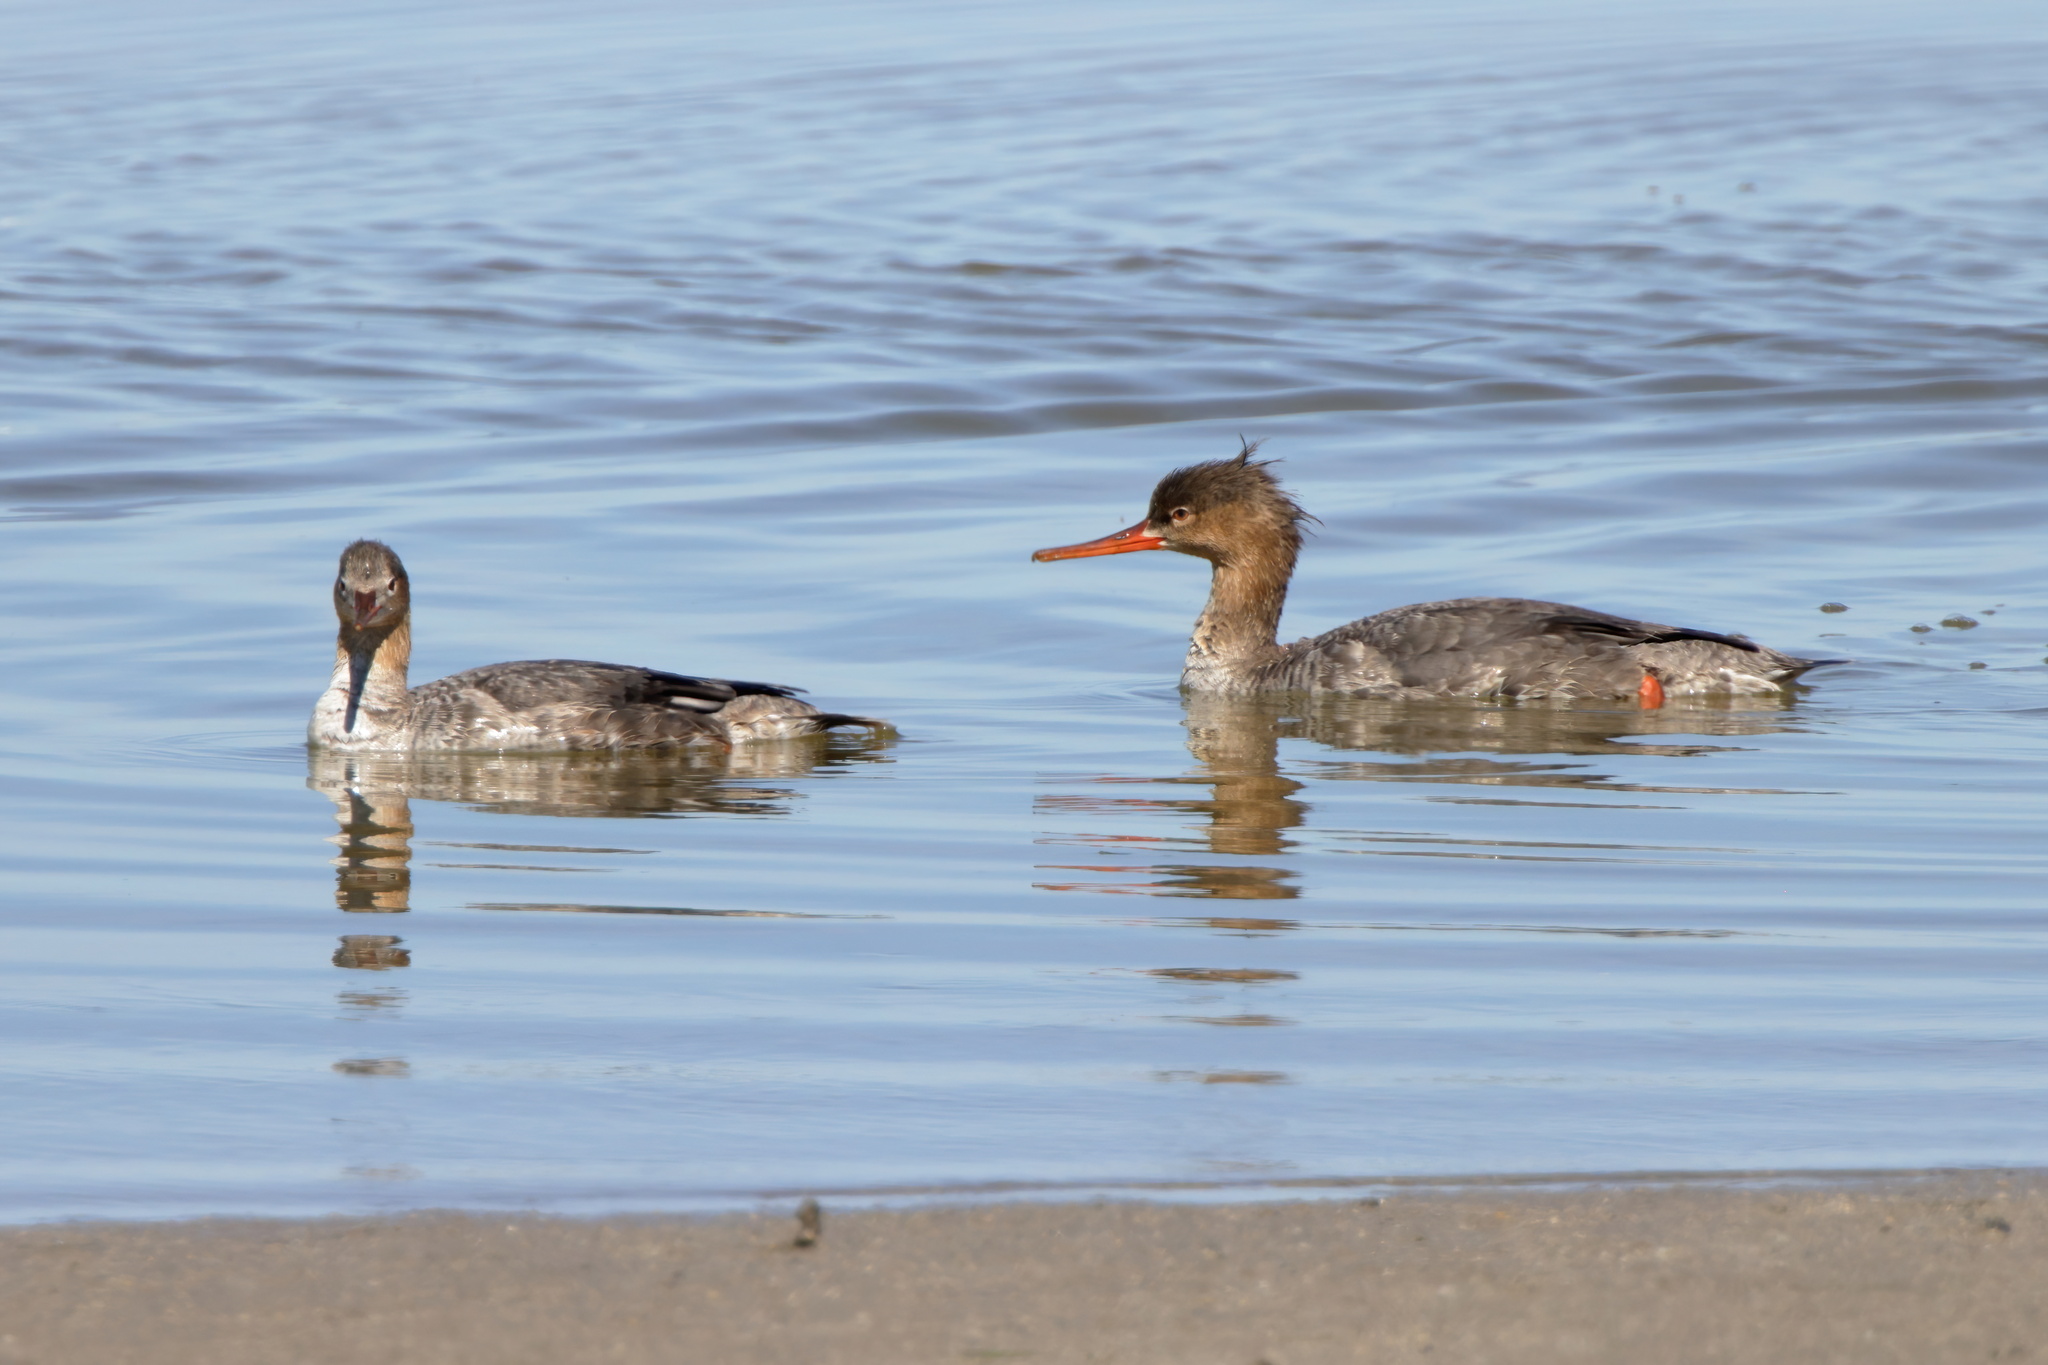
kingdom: Animalia
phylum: Chordata
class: Aves
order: Anseriformes
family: Anatidae
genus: Mergus
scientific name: Mergus serrator
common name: Red-breasted merganser
